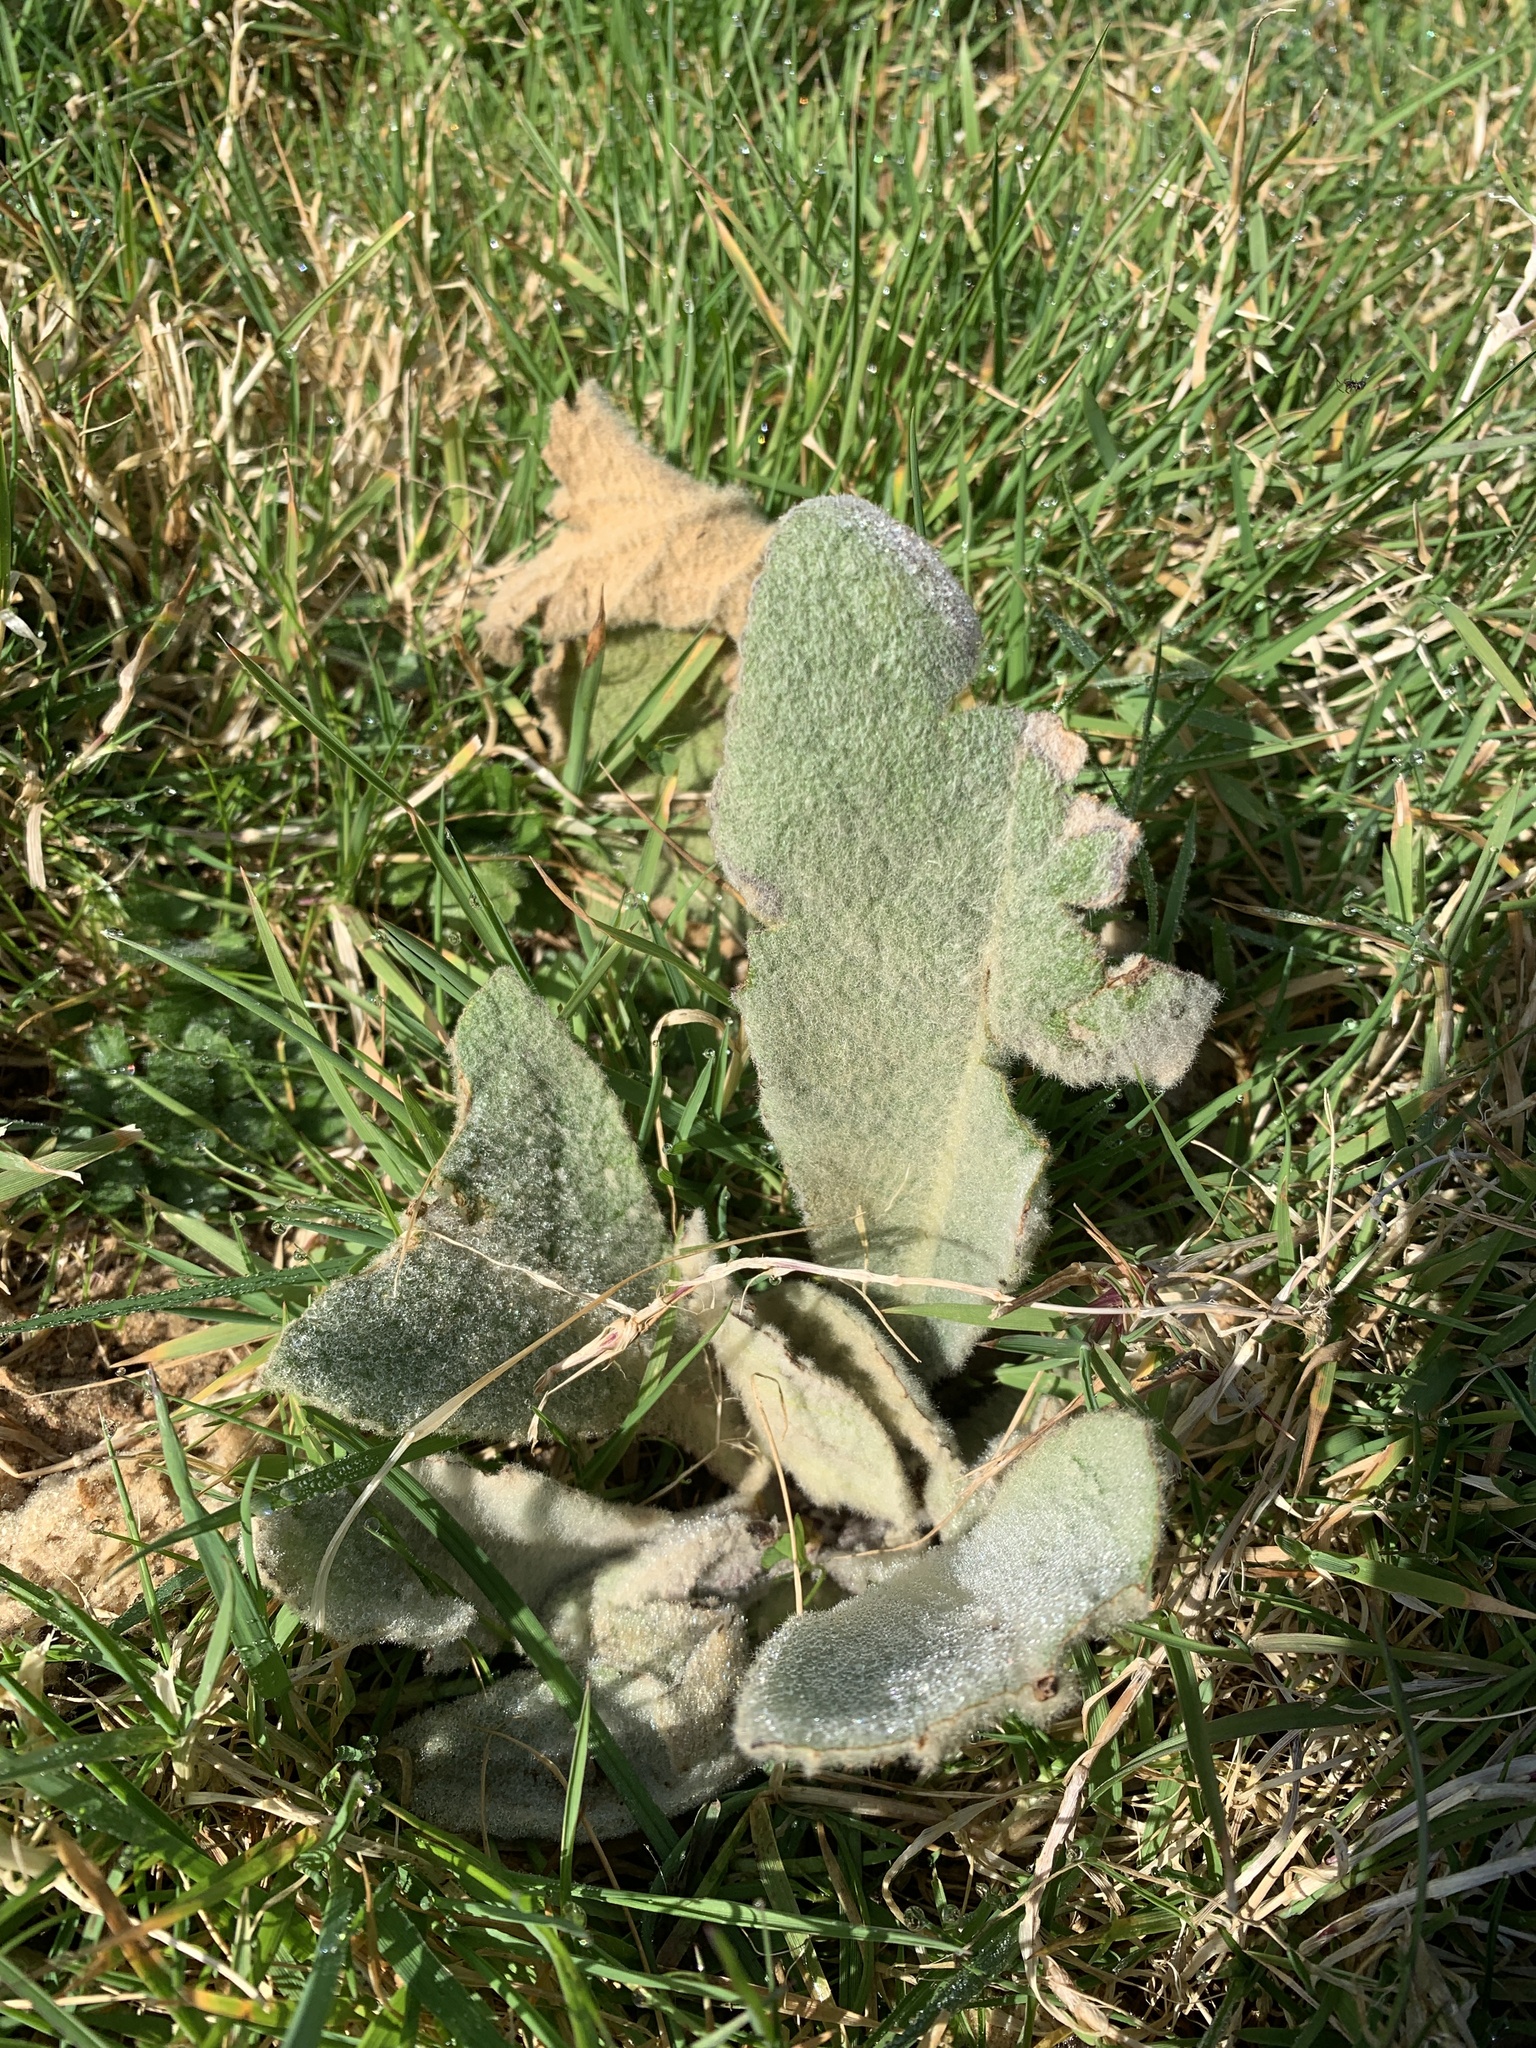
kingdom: Plantae
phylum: Tracheophyta
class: Magnoliopsida
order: Lamiales
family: Scrophulariaceae
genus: Verbascum
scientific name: Verbascum thapsus
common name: Common mullein
